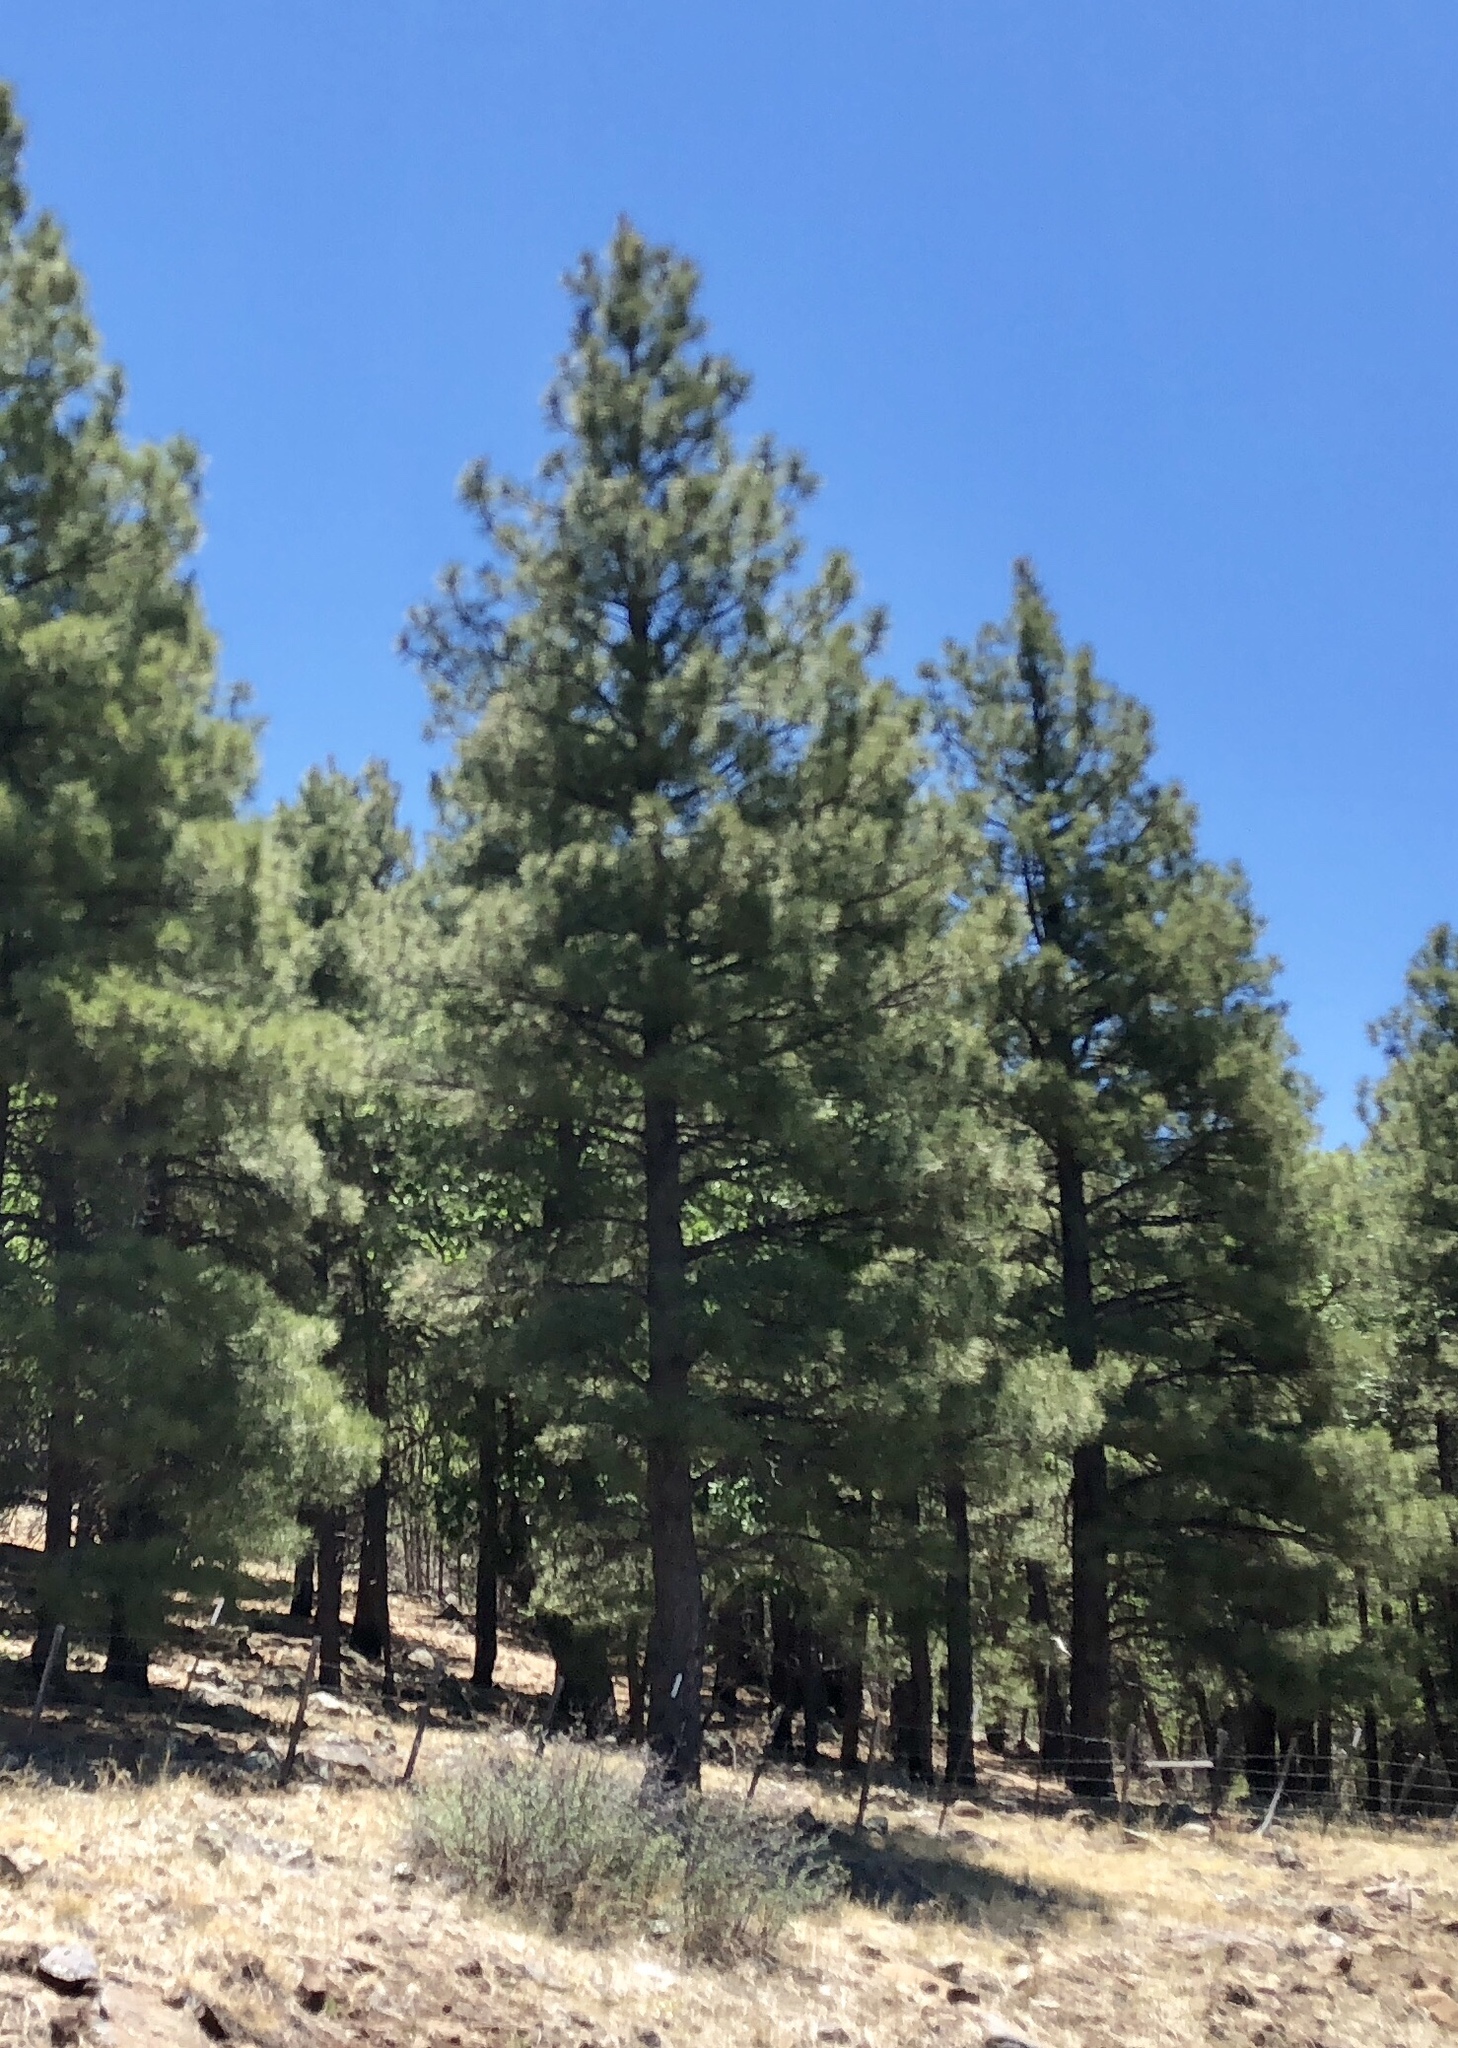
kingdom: Plantae
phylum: Tracheophyta
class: Pinopsida
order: Pinales
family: Pinaceae
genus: Pinus
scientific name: Pinus ponderosa
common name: Western yellow-pine
